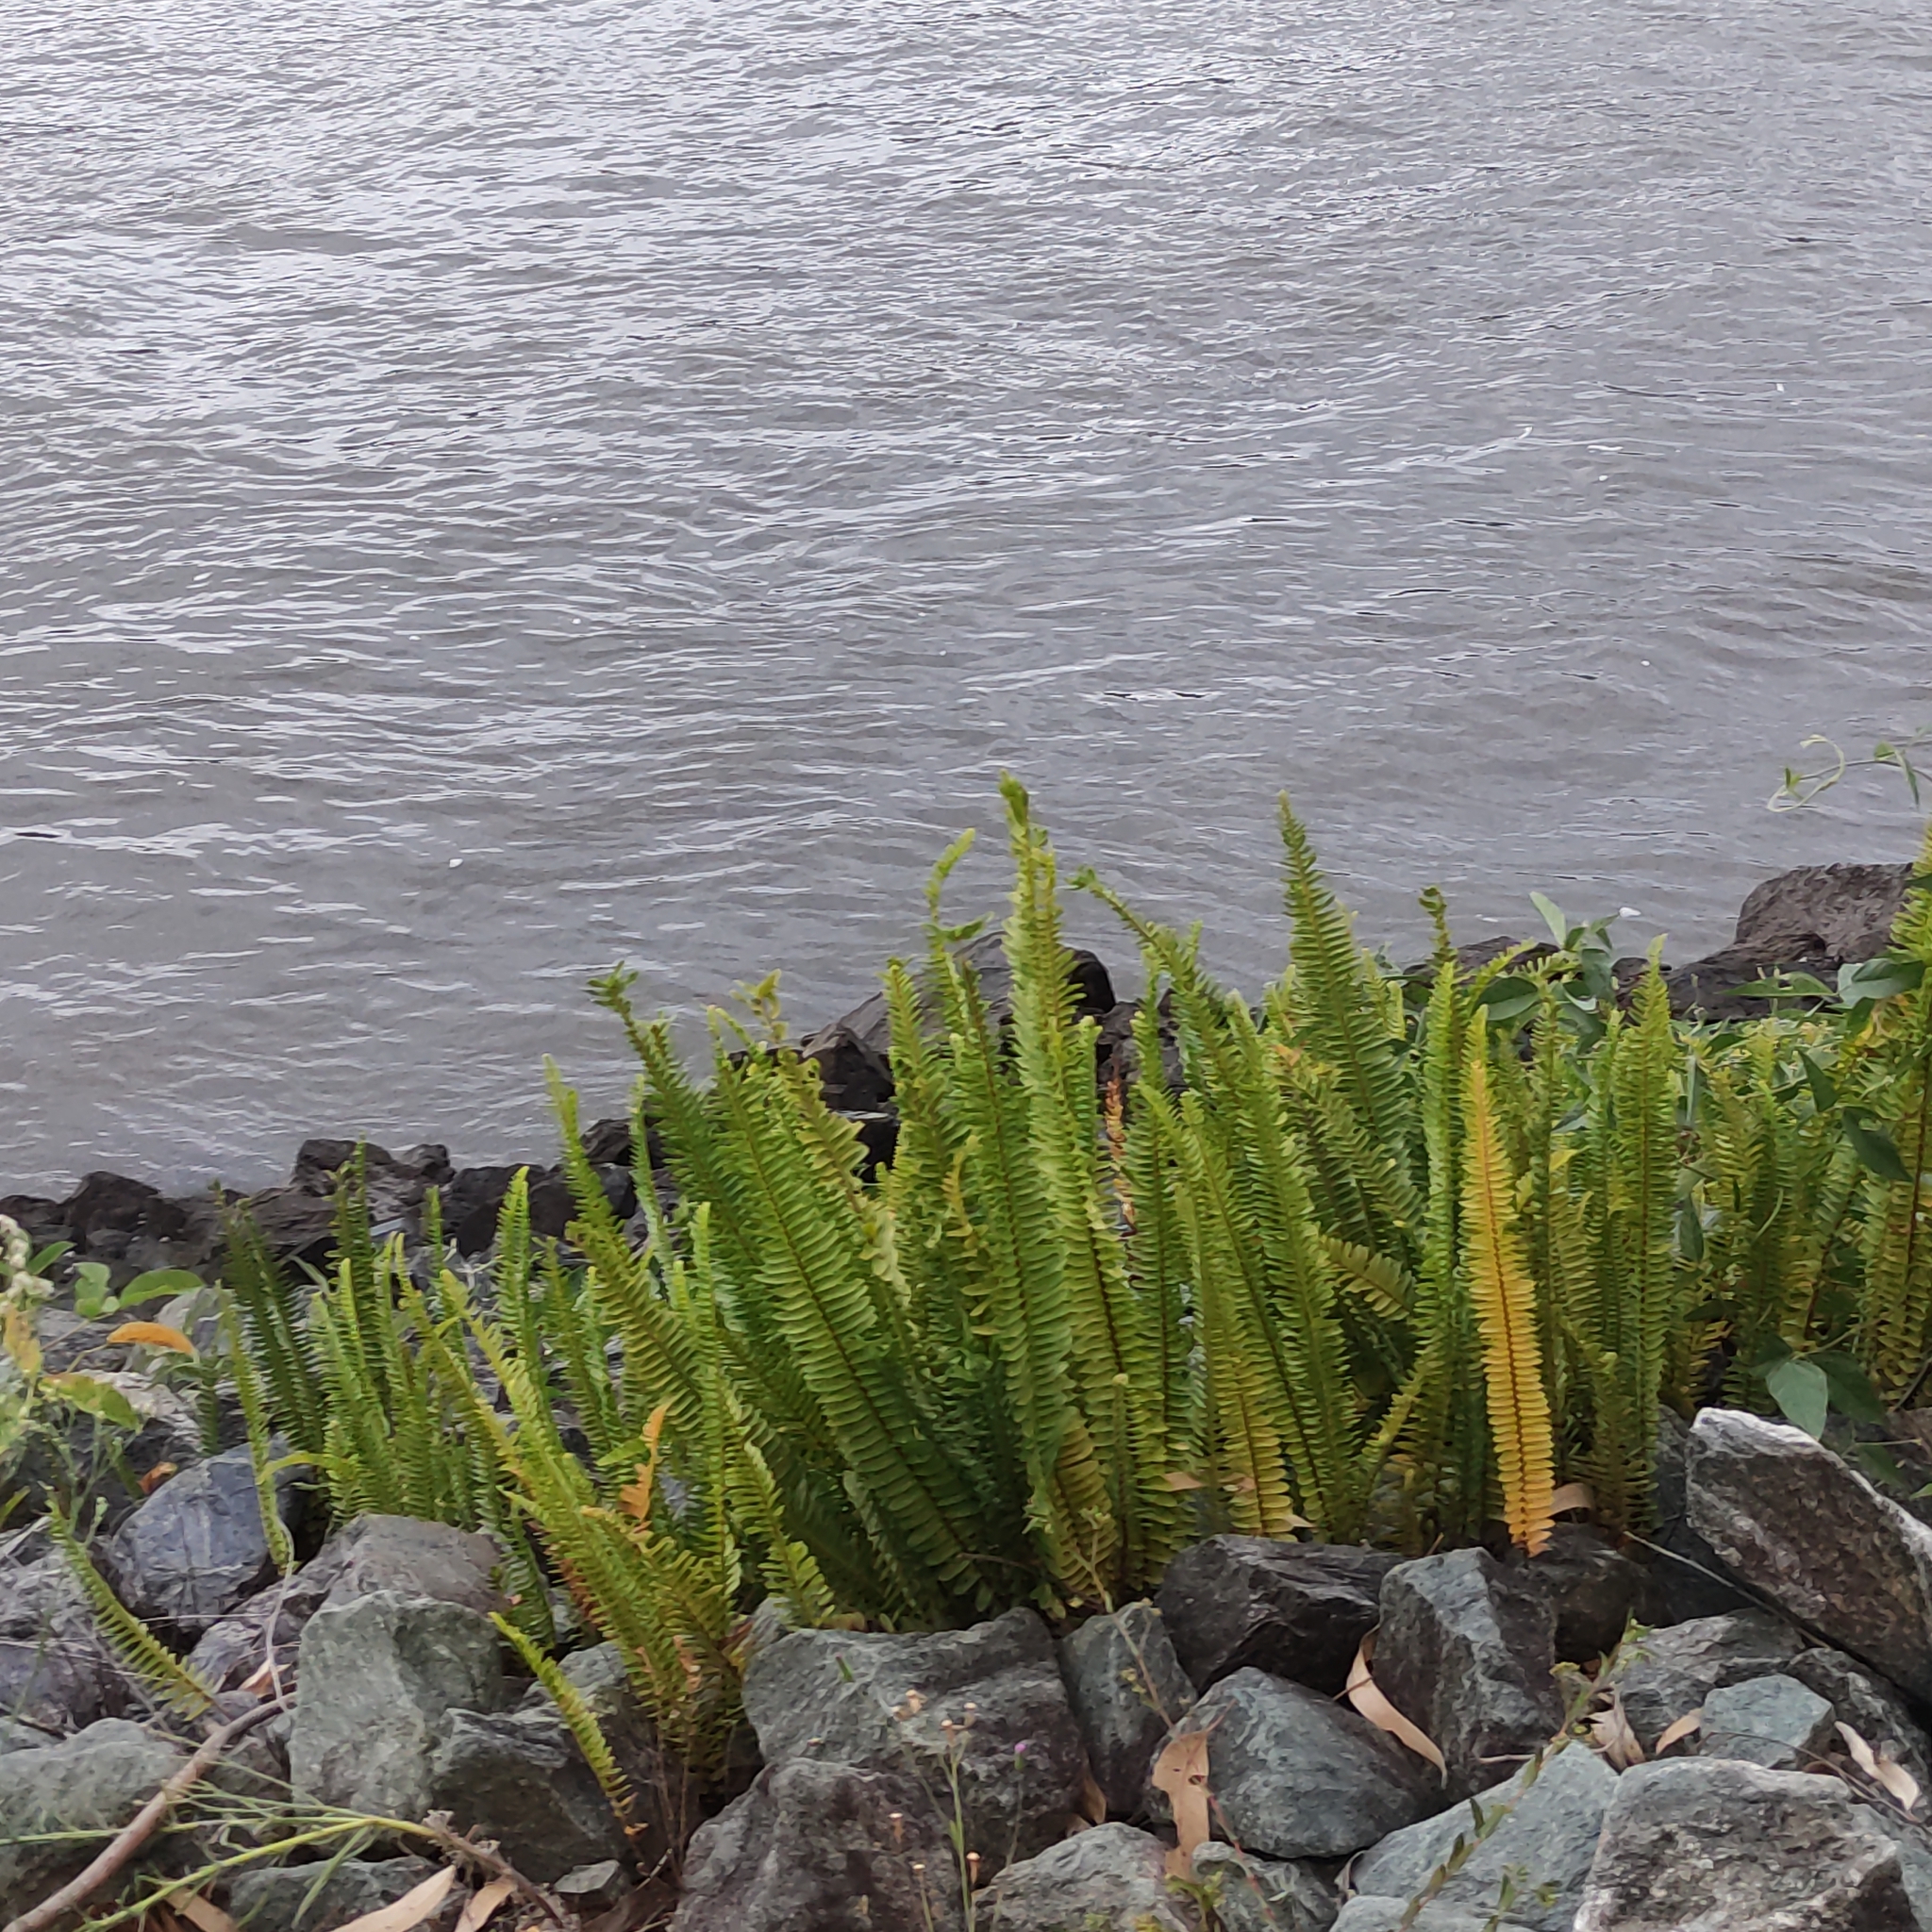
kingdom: Plantae
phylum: Tracheophyta
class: Polypodiopsida
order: Polypodiales
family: Nephrolepidaceae
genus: Nephrolepis
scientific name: Nephrolepis cordifolia
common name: Narrow swordfern
